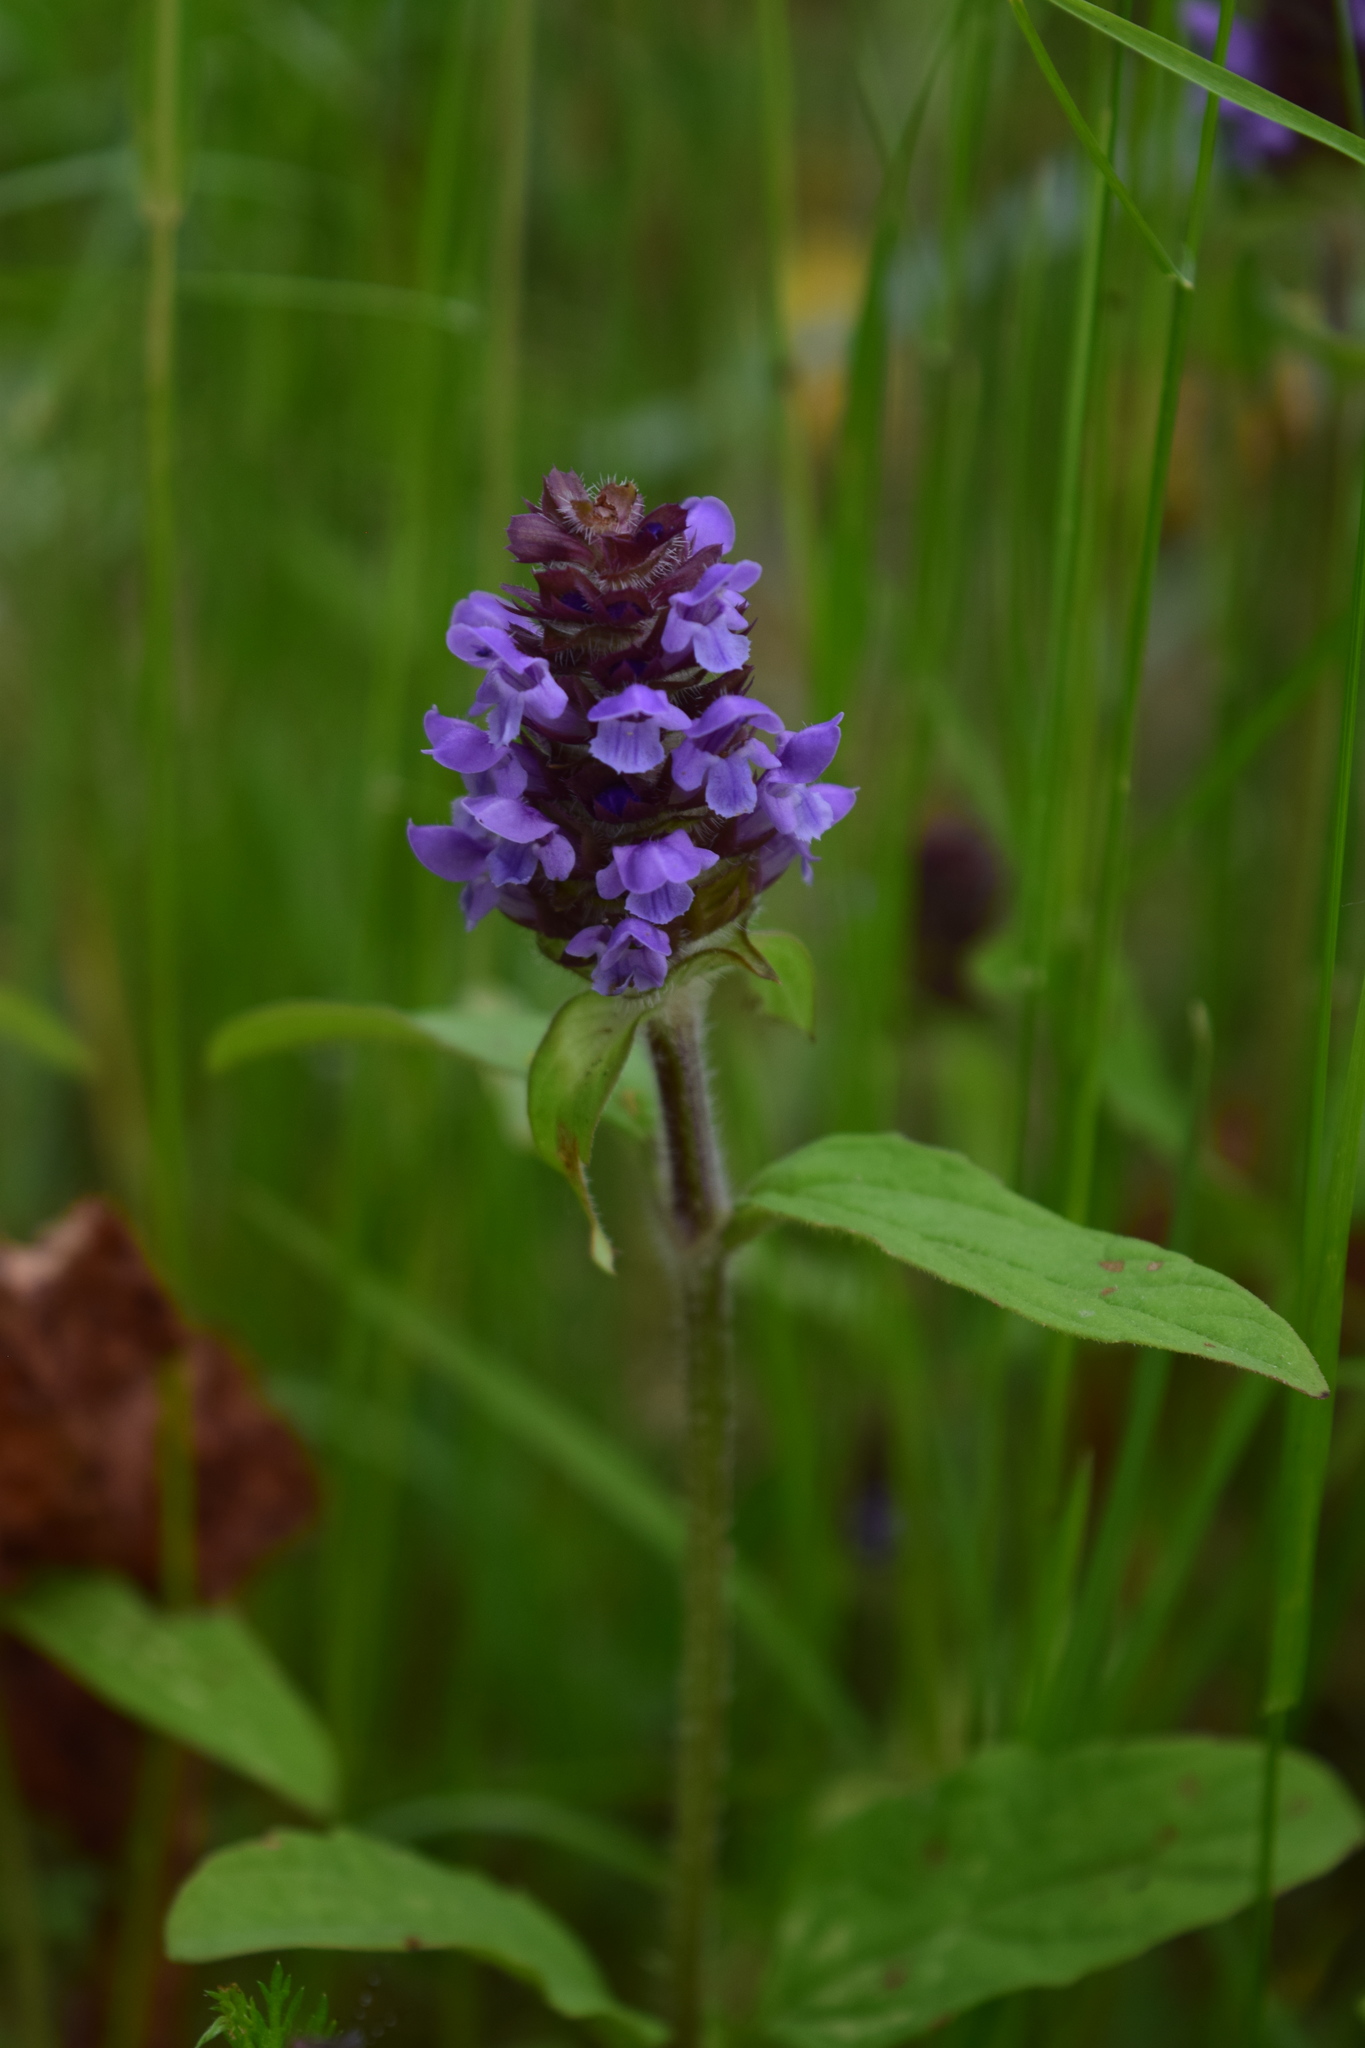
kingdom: Plantae
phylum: Tracheophyta
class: Magnoliopsida
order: Lamiales
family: Lamiaceae
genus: Prunella
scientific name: Prunella vulgaris
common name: Heal-all
